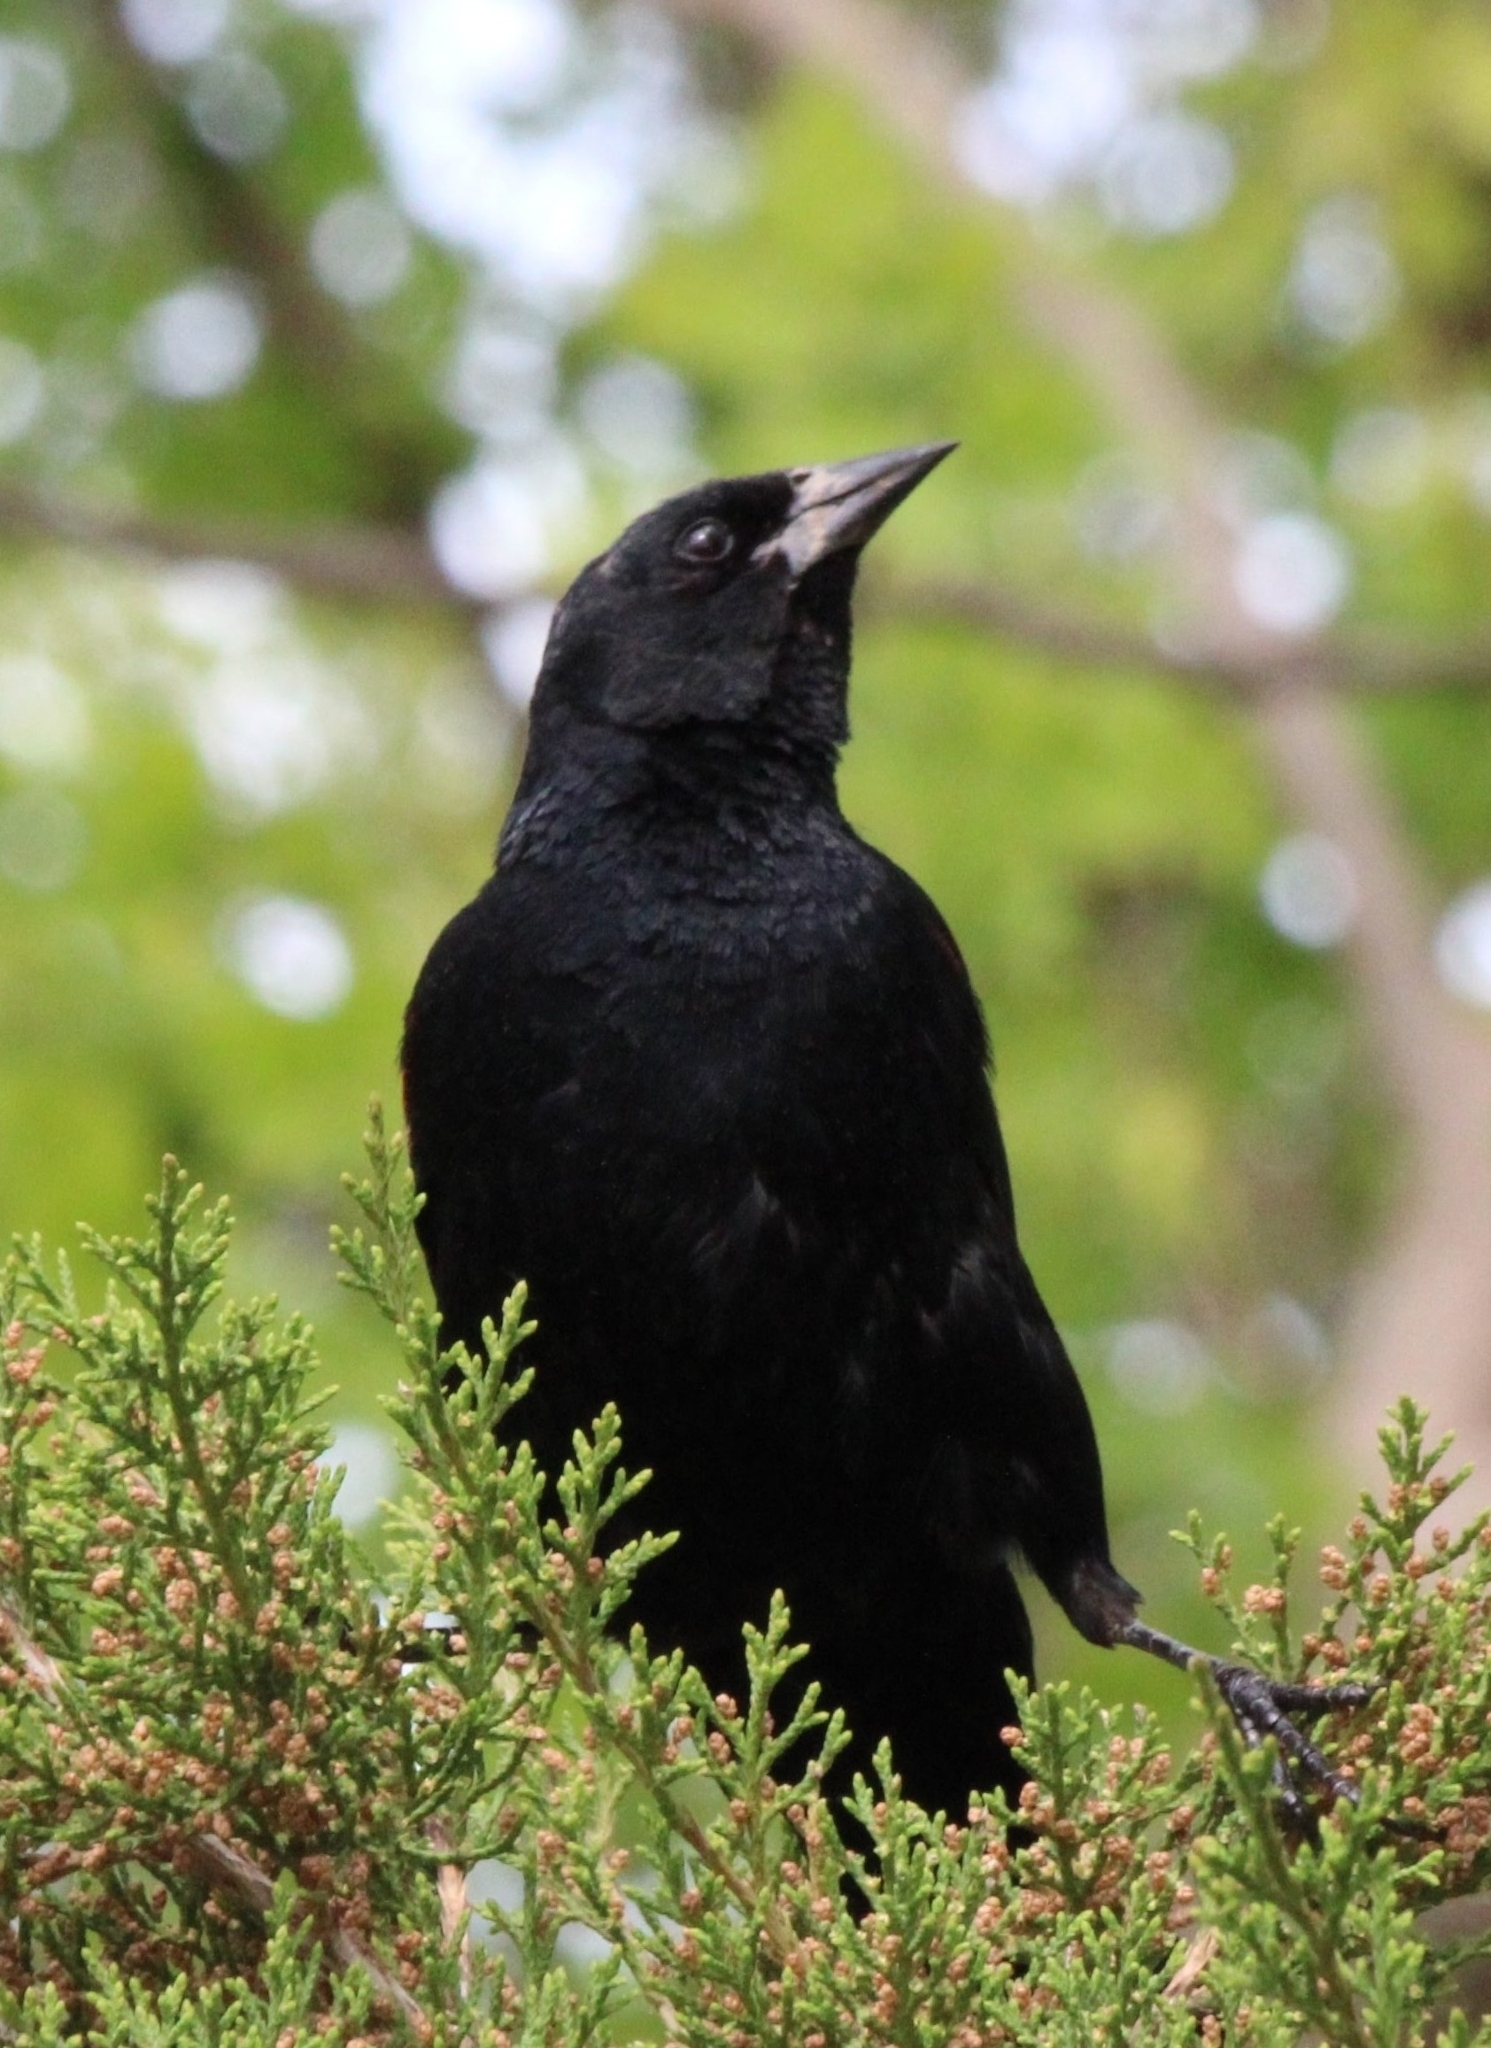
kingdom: Animalia
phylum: Chordata
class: Aves
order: Passeriformes
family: Icteridae
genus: Agelaius
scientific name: Agelaius phoeniceus
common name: Red-winged blackbird
